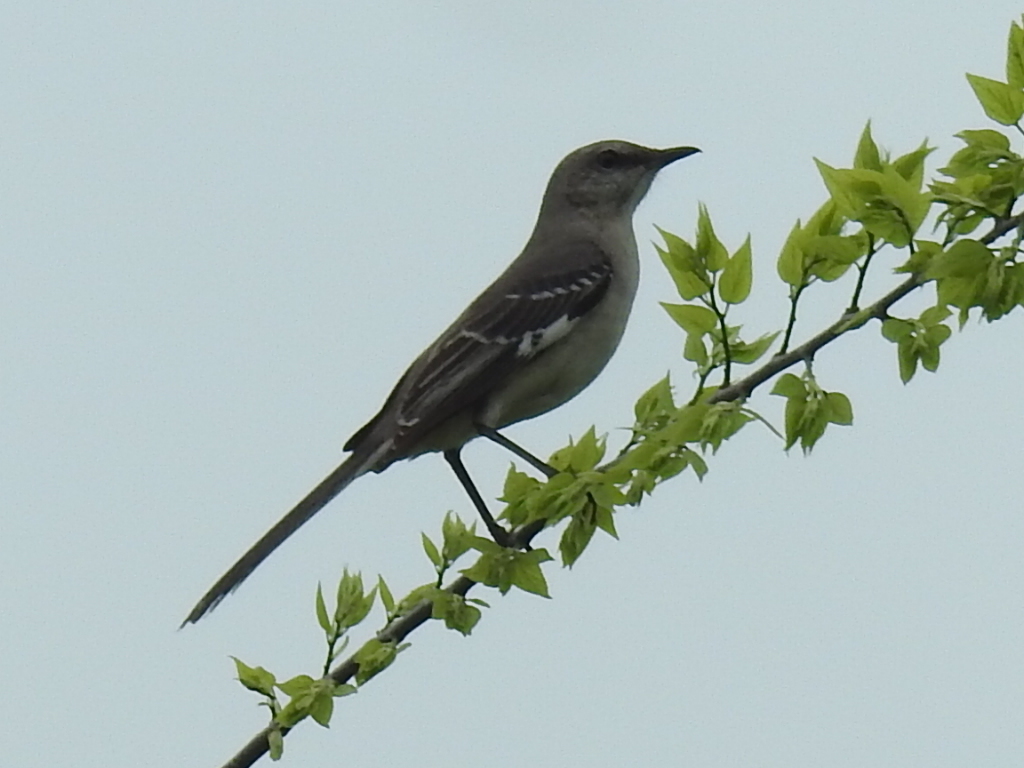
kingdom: Animalia
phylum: Chordata
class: Aves
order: Passeriformes
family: Mimidae
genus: Mimus
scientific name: Mimus polyglottos
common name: Northern mockingbird
